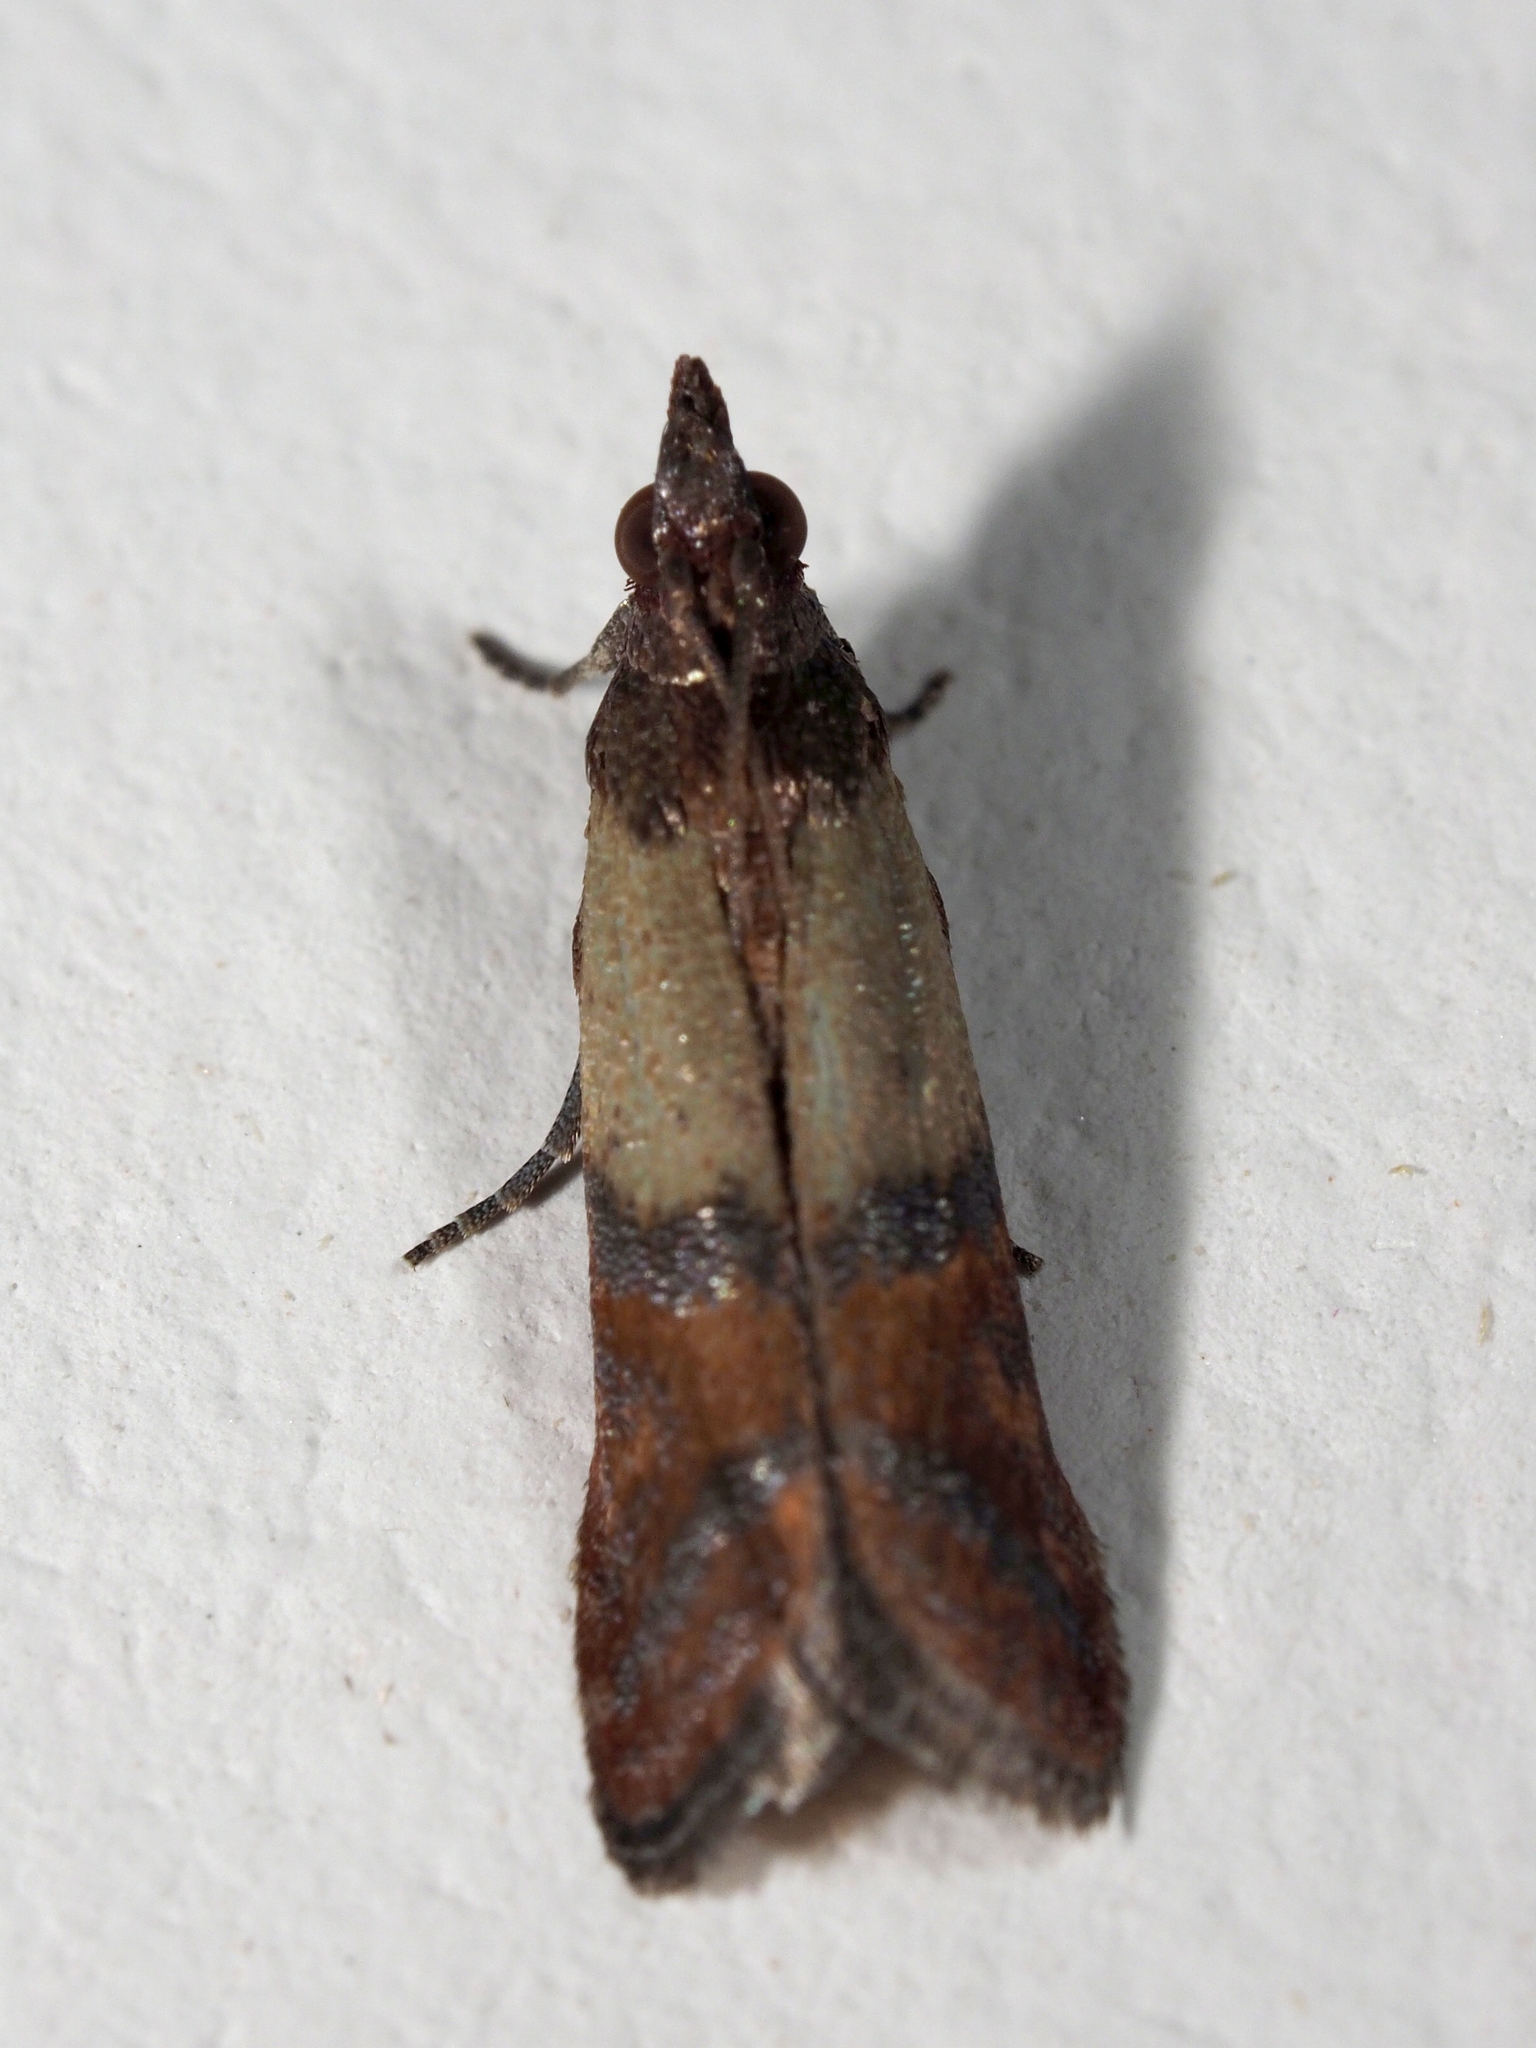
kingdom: Animalia
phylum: Arthropoda
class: Insecta
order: Lepidoptera
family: Pyralidae
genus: Plodia
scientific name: Plodia interpunctella
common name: Indian meal moth
